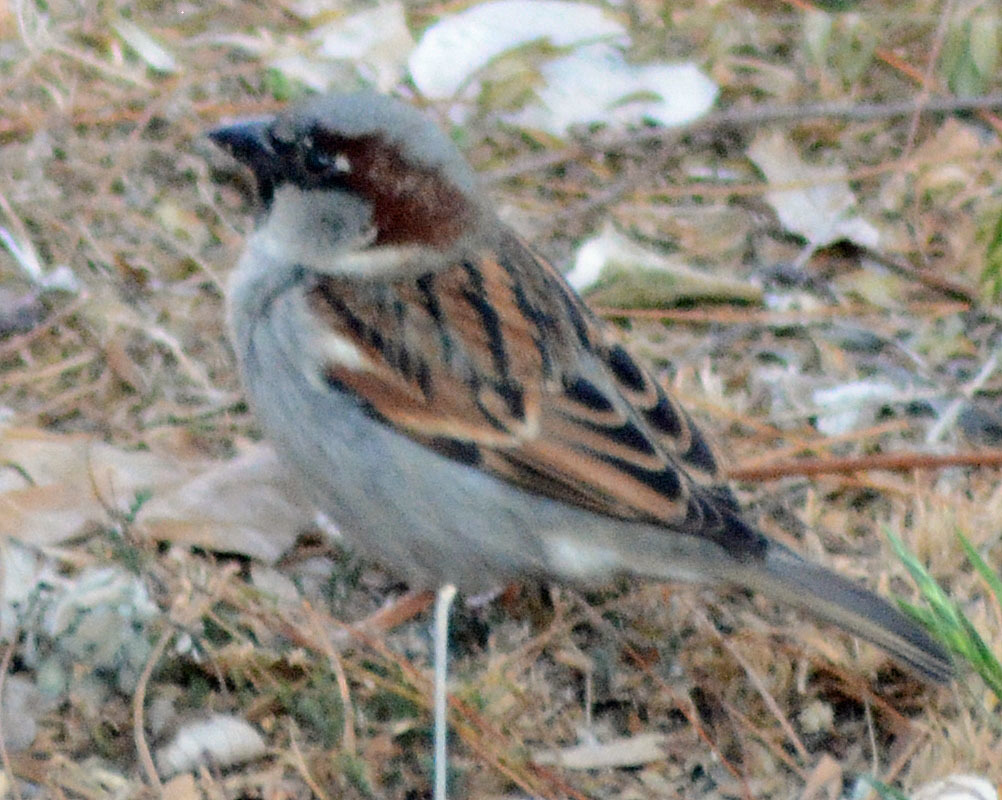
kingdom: Animalia
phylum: Chordata
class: Aves
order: Passeriformes
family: Passeridae
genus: Passer
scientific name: Passer domesticus
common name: House sparrow
